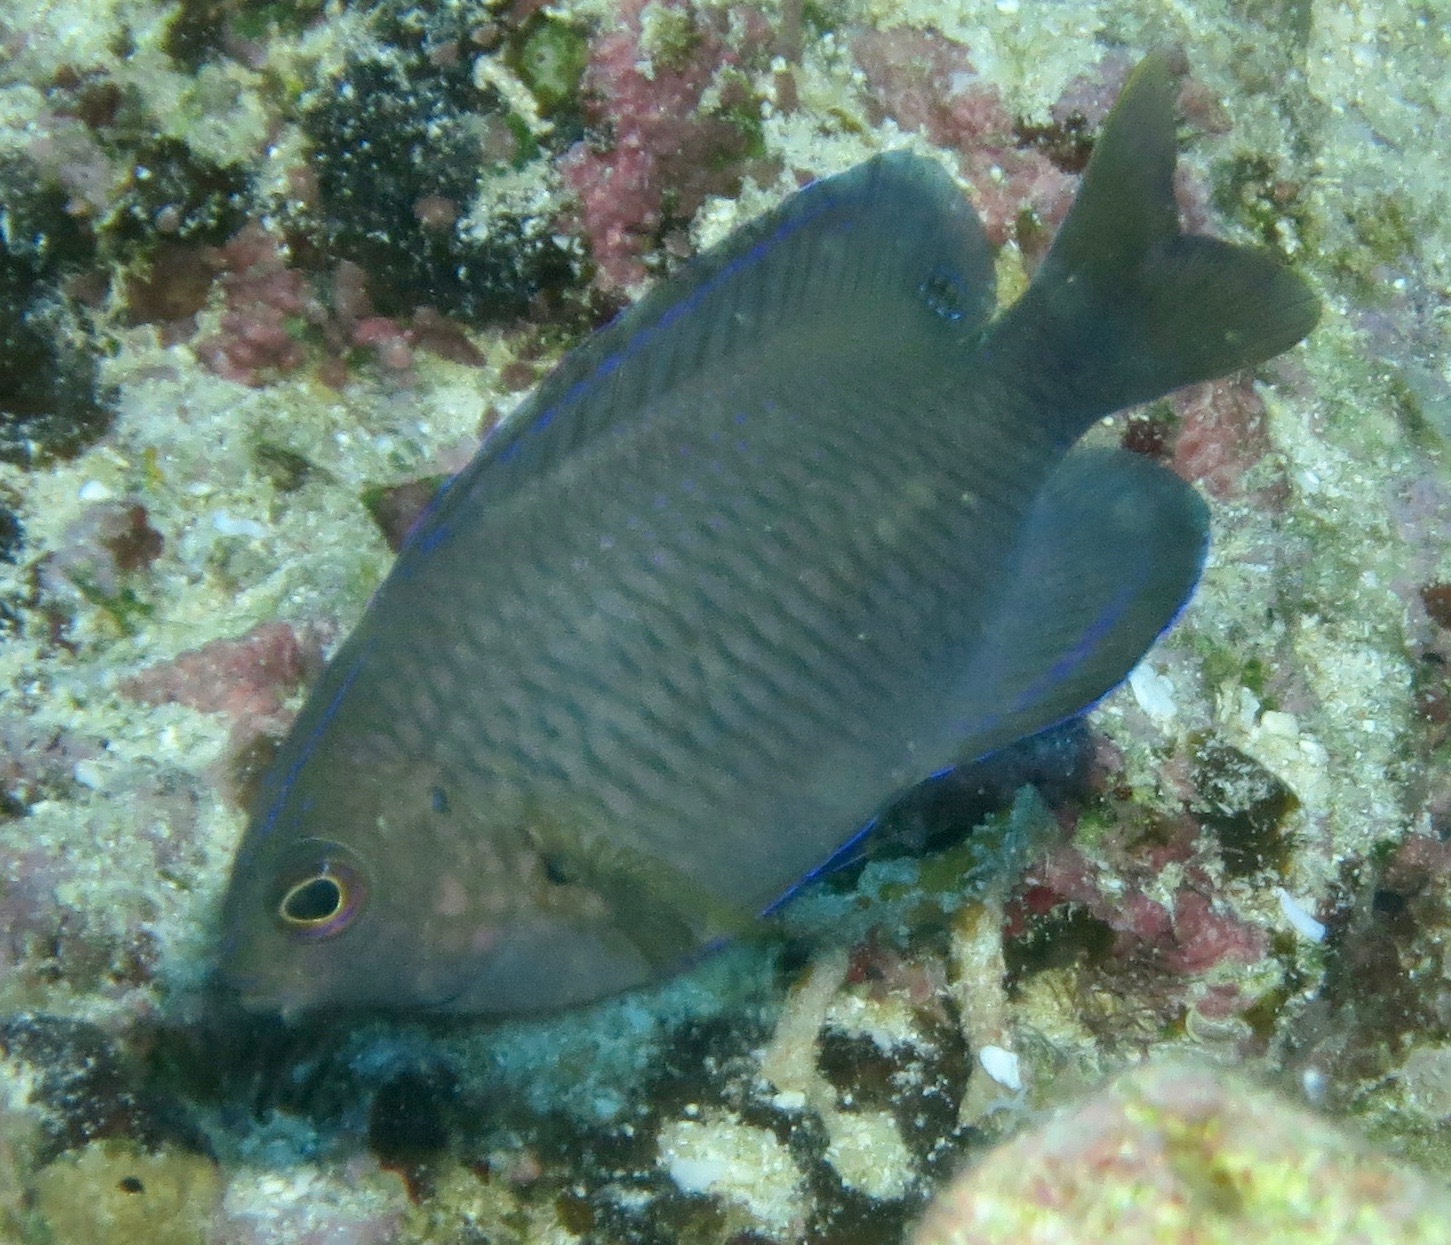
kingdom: Animalia
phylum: Chordata
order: Perciformes
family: Pomacentridae
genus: Pomacentrus
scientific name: Pomacentrus spilotoceps
